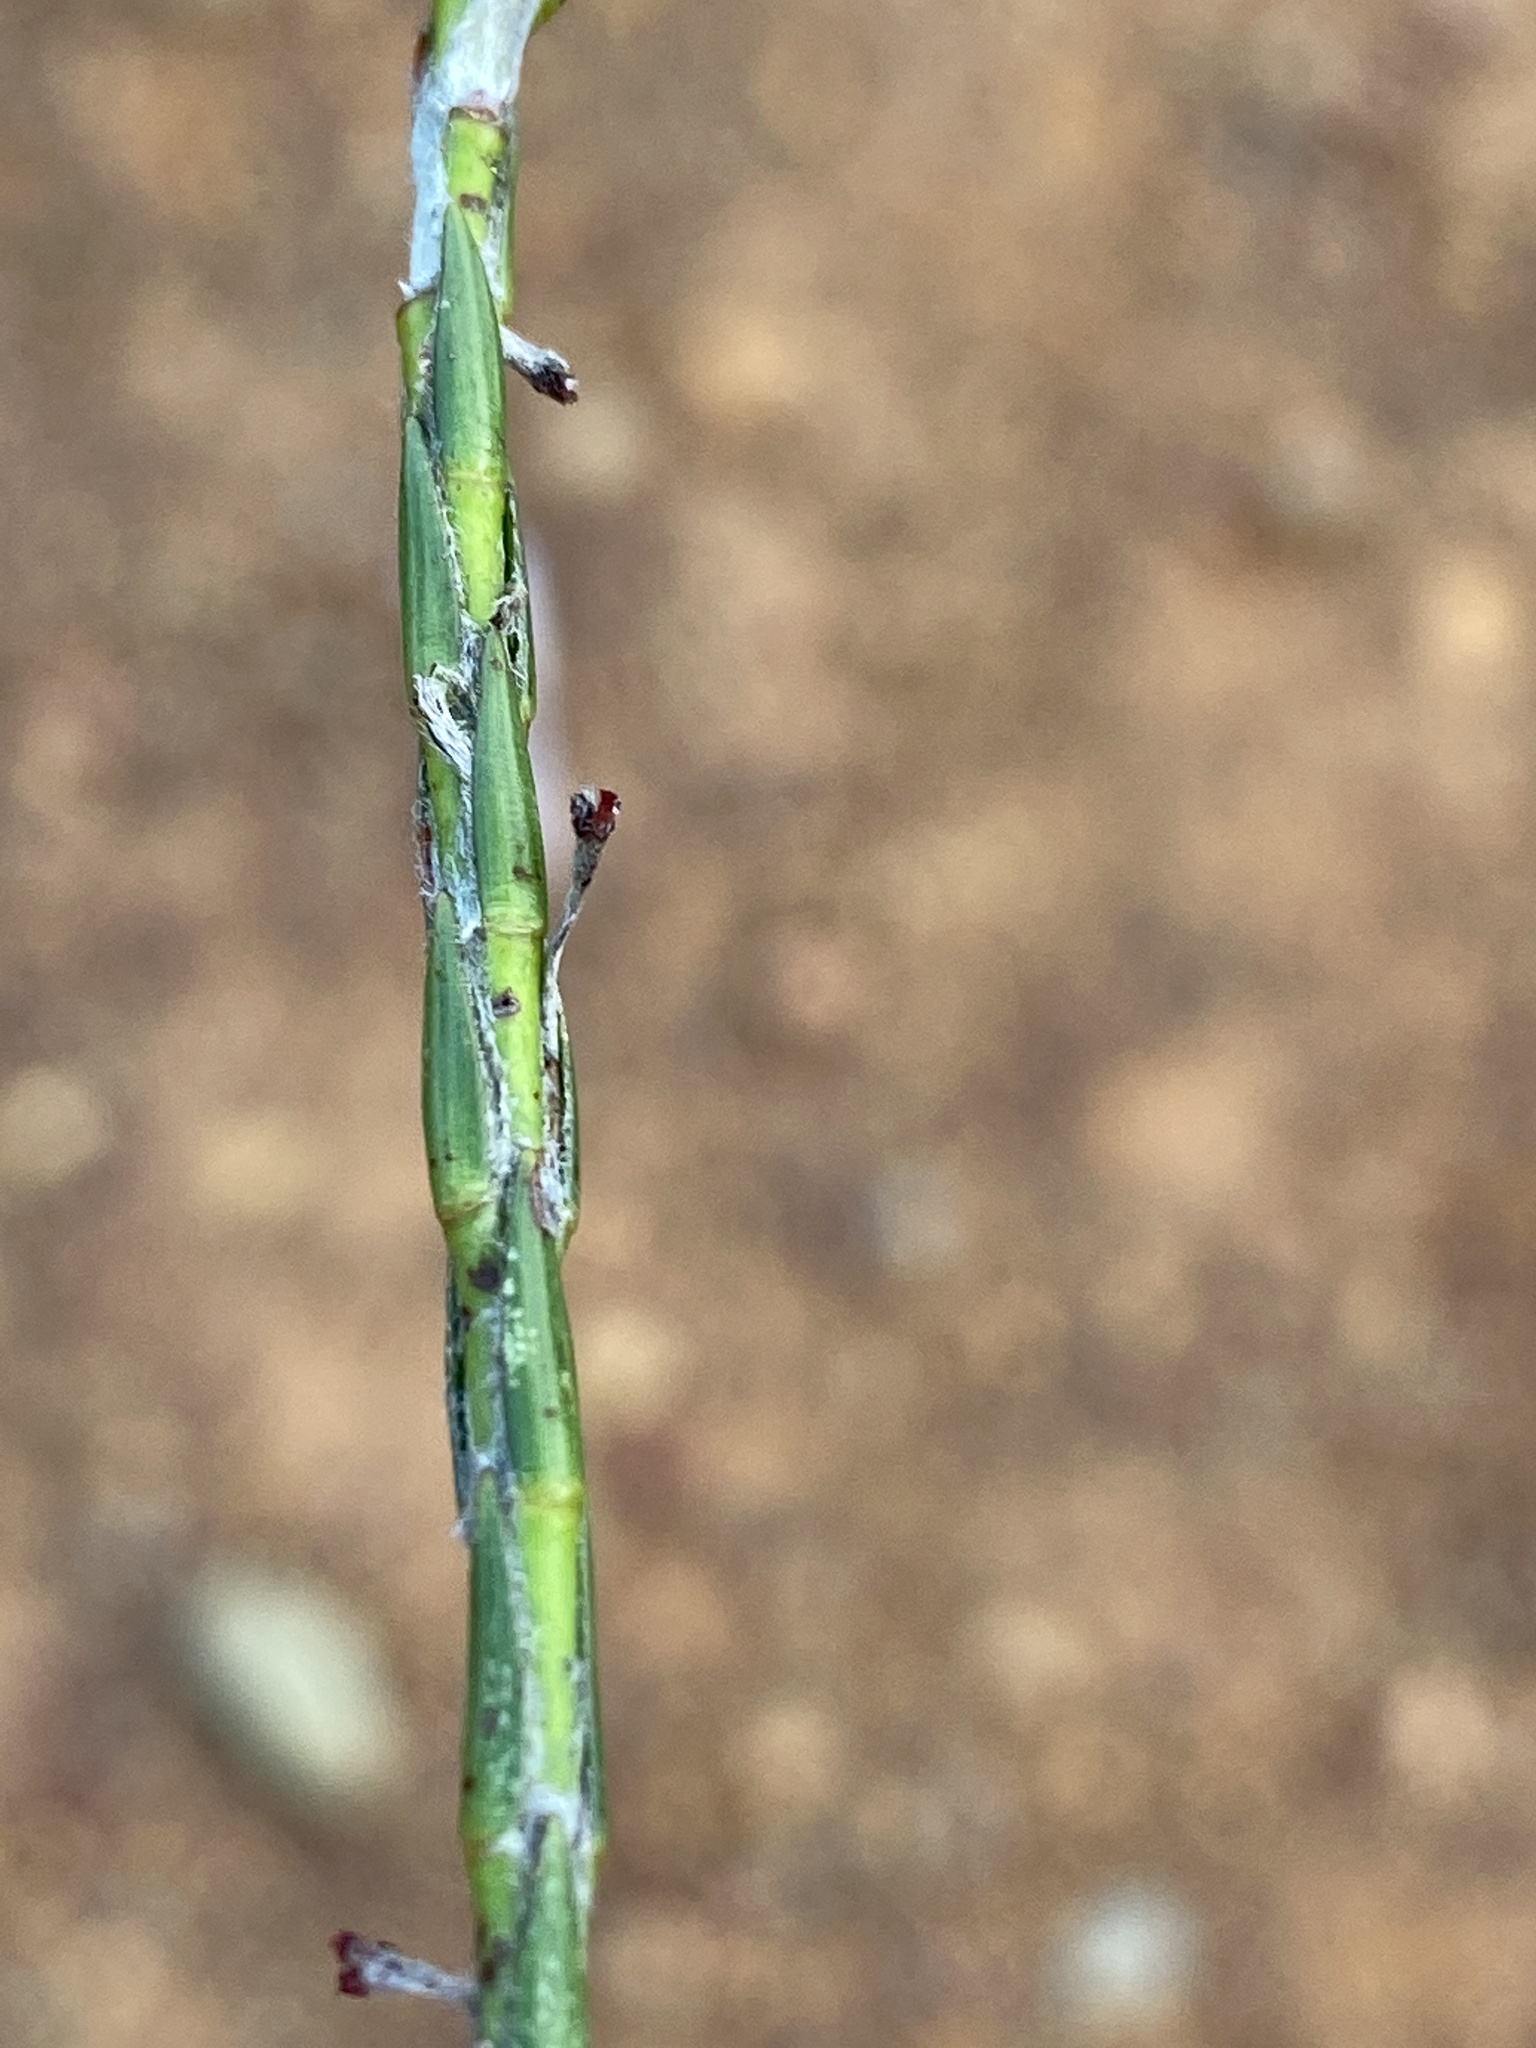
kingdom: Plantae
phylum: Tracheophyta
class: Magnoliopsida
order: Malvales
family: Thymelaeaceae
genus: Struthiola
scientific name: Struthiola ciliata
